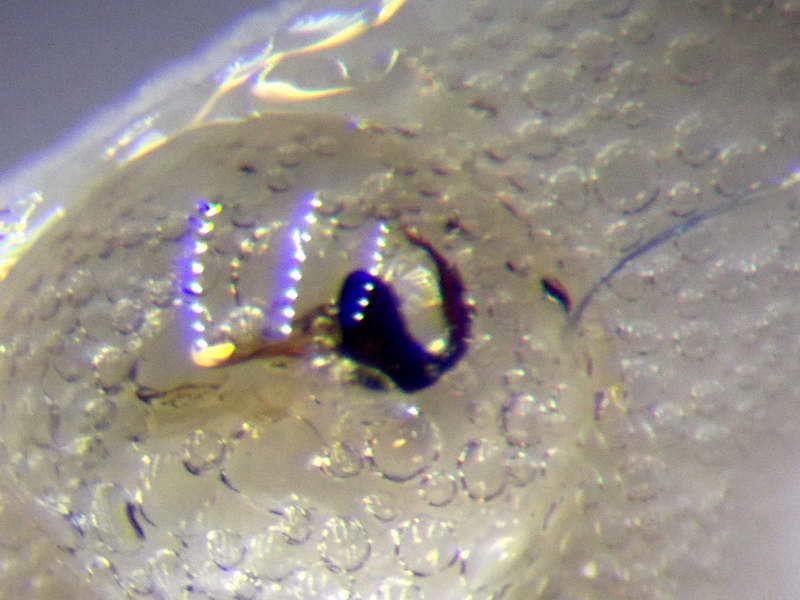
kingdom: Animalia
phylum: Arthropoda
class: Insecta
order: Hemiptera
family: Miridae
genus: Deraeocoris
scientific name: Deraeocoris serenus
